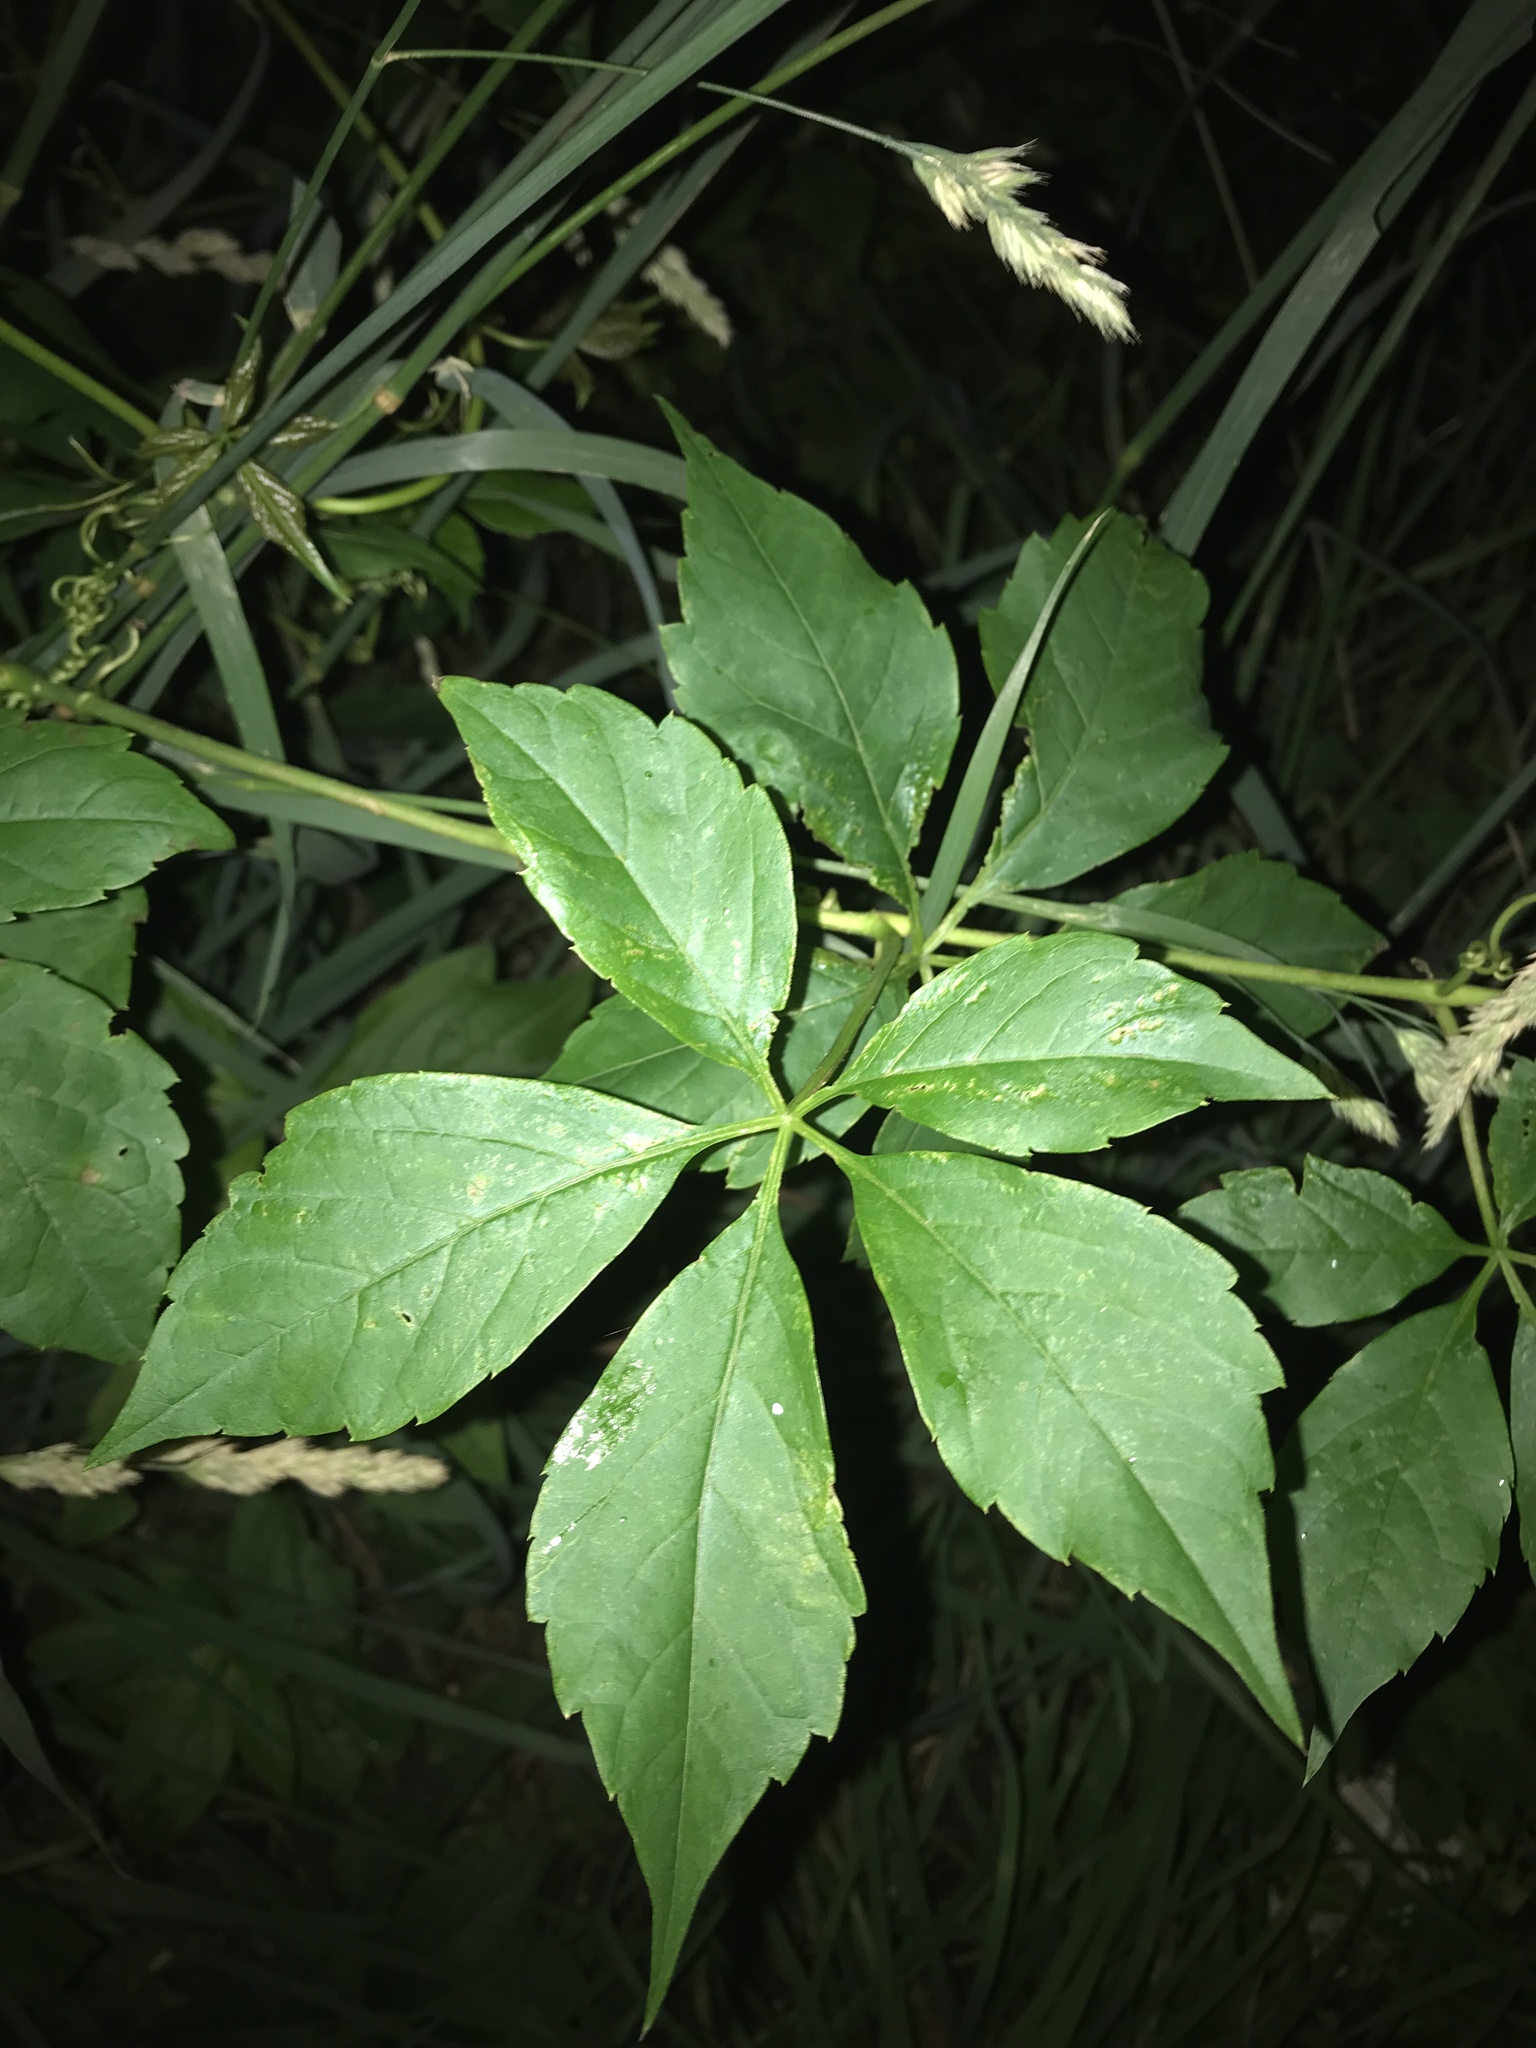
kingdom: Plantae
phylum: Tracheophyta
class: Magnoliopsida
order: Vitales
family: Vitaceae
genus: Parthenocissus
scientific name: Parthenocissus quinquefolia
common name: Virginia-creeper
